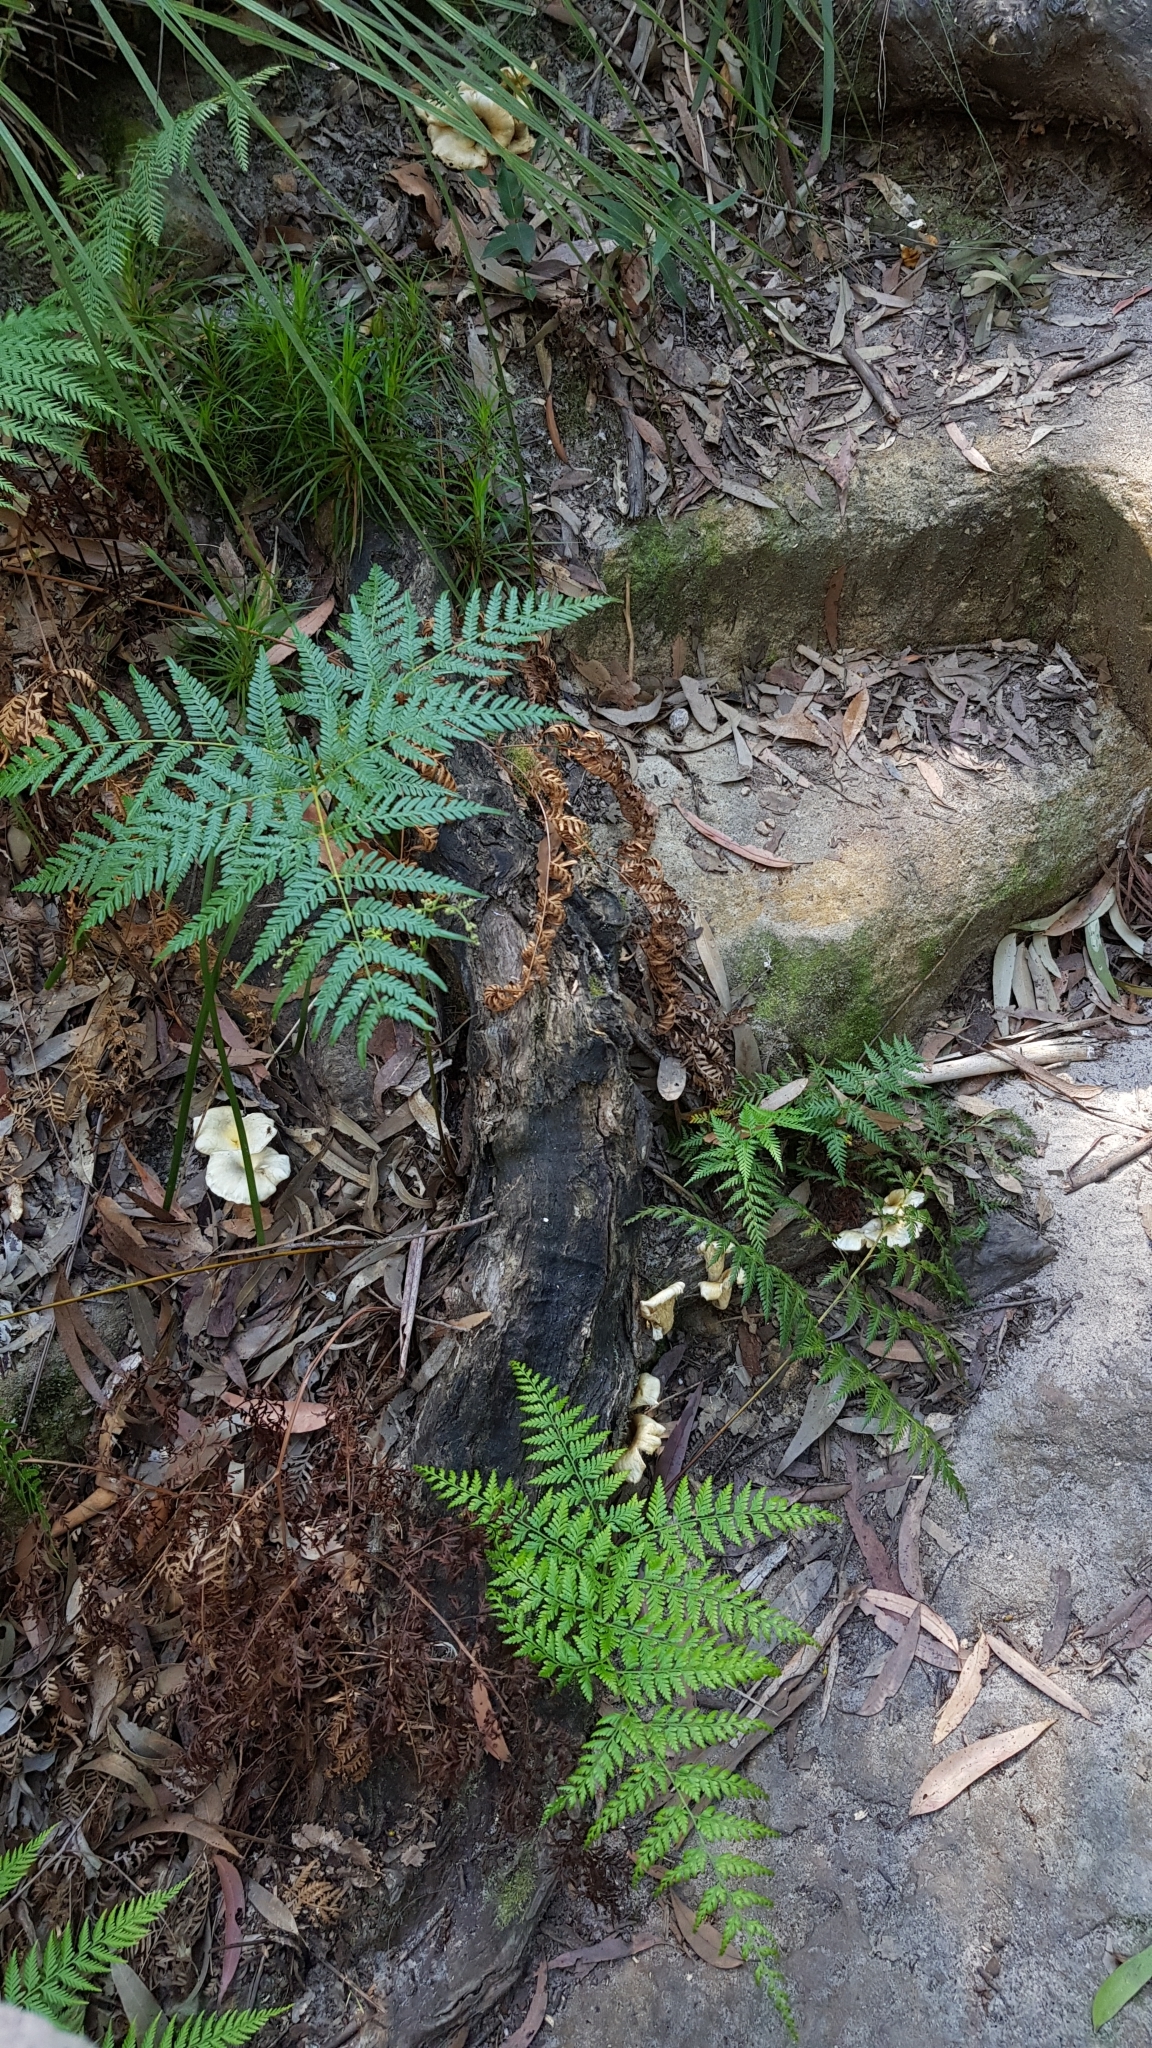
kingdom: Fungi
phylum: Basidiomycota
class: Agaricomycetes
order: Agaricales
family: Omphalotaceae
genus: Omphalotus
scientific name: Omphalotus nidiformis
